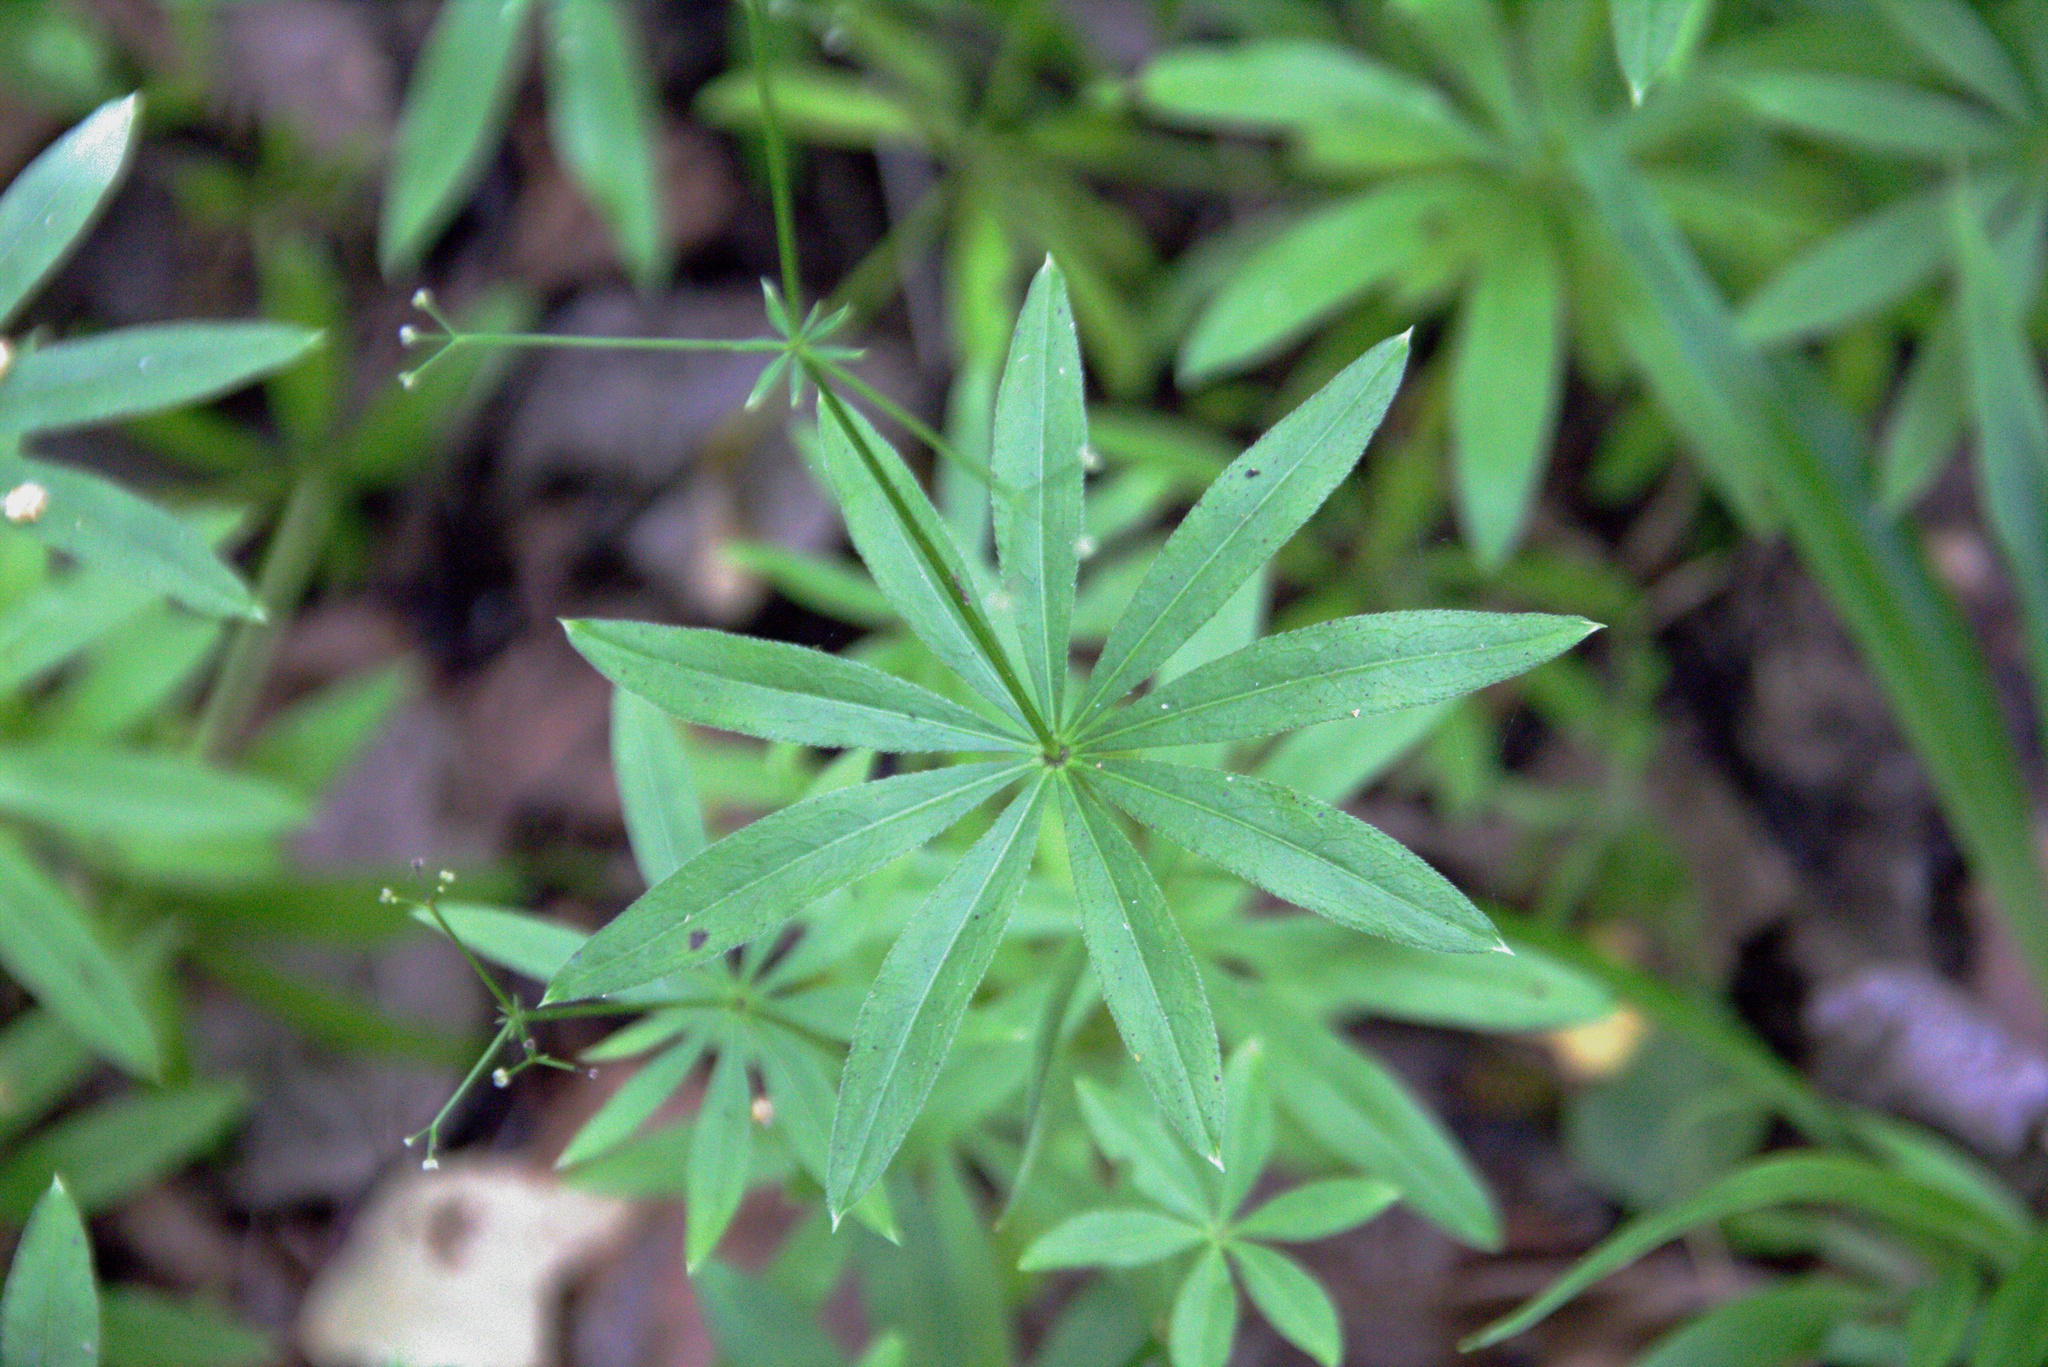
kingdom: Plantae
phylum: Tracheophyta
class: Magnoliopsida
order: Gentianales
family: Rubiaceae
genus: Galium
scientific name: Galium odoratum
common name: Sweet woodruff
